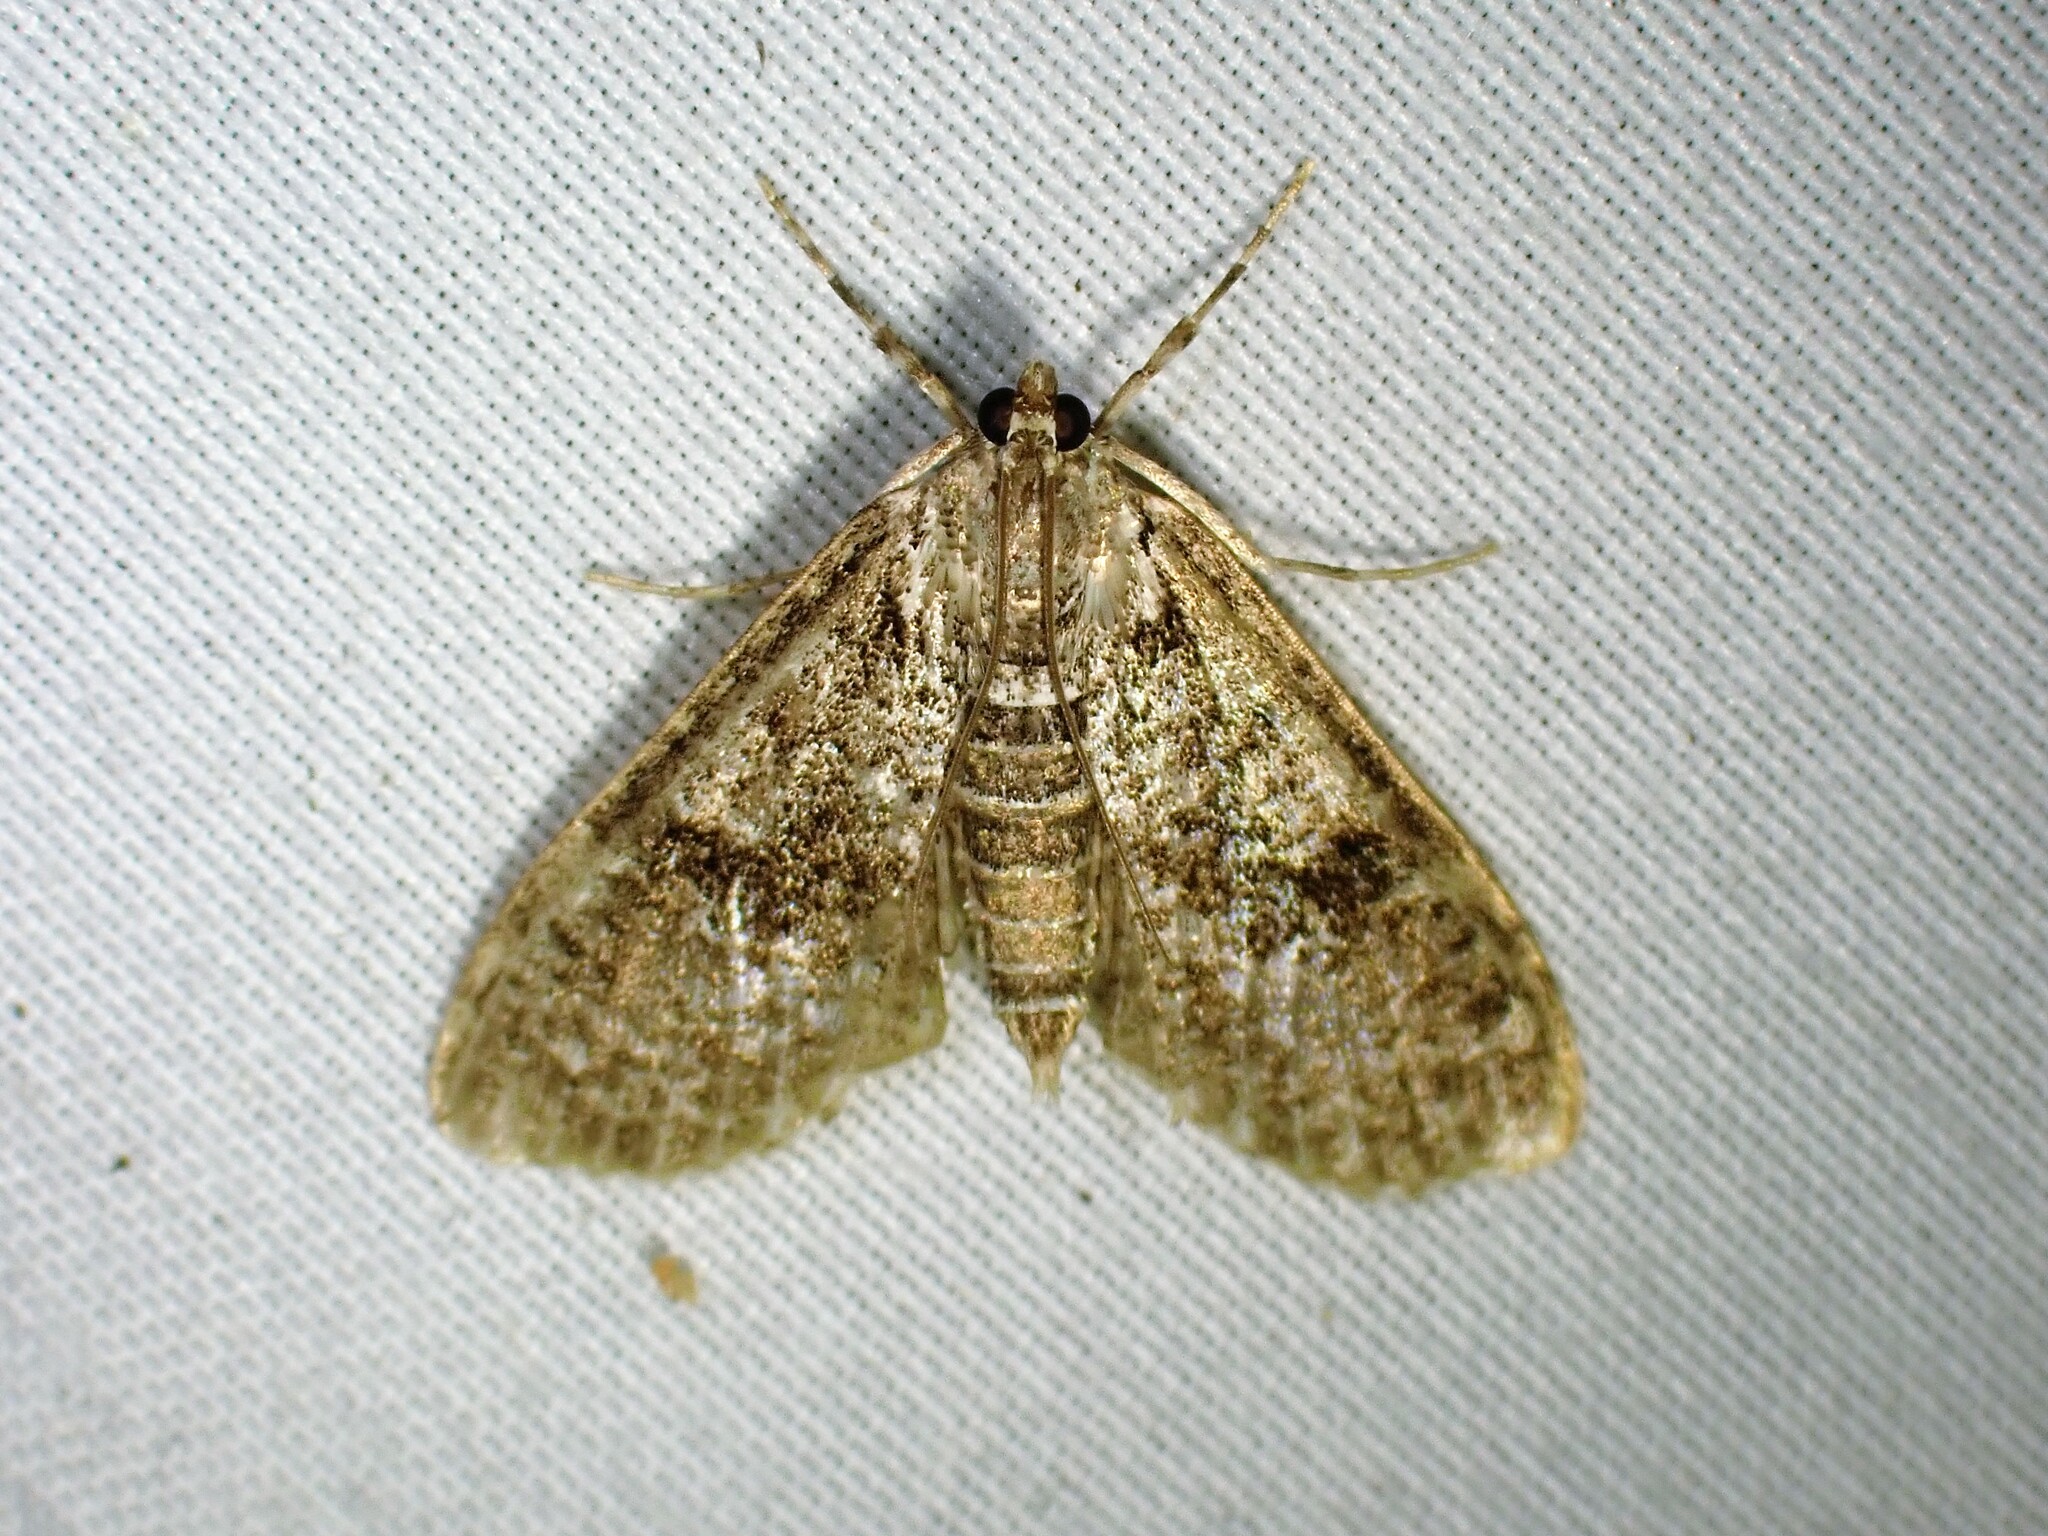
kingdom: Animalia
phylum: Arthropoda
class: Insecta
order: Lepidoptera
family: Crambidae
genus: Palpita
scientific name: Palpita magniferalis
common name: Splendid palpita moth
